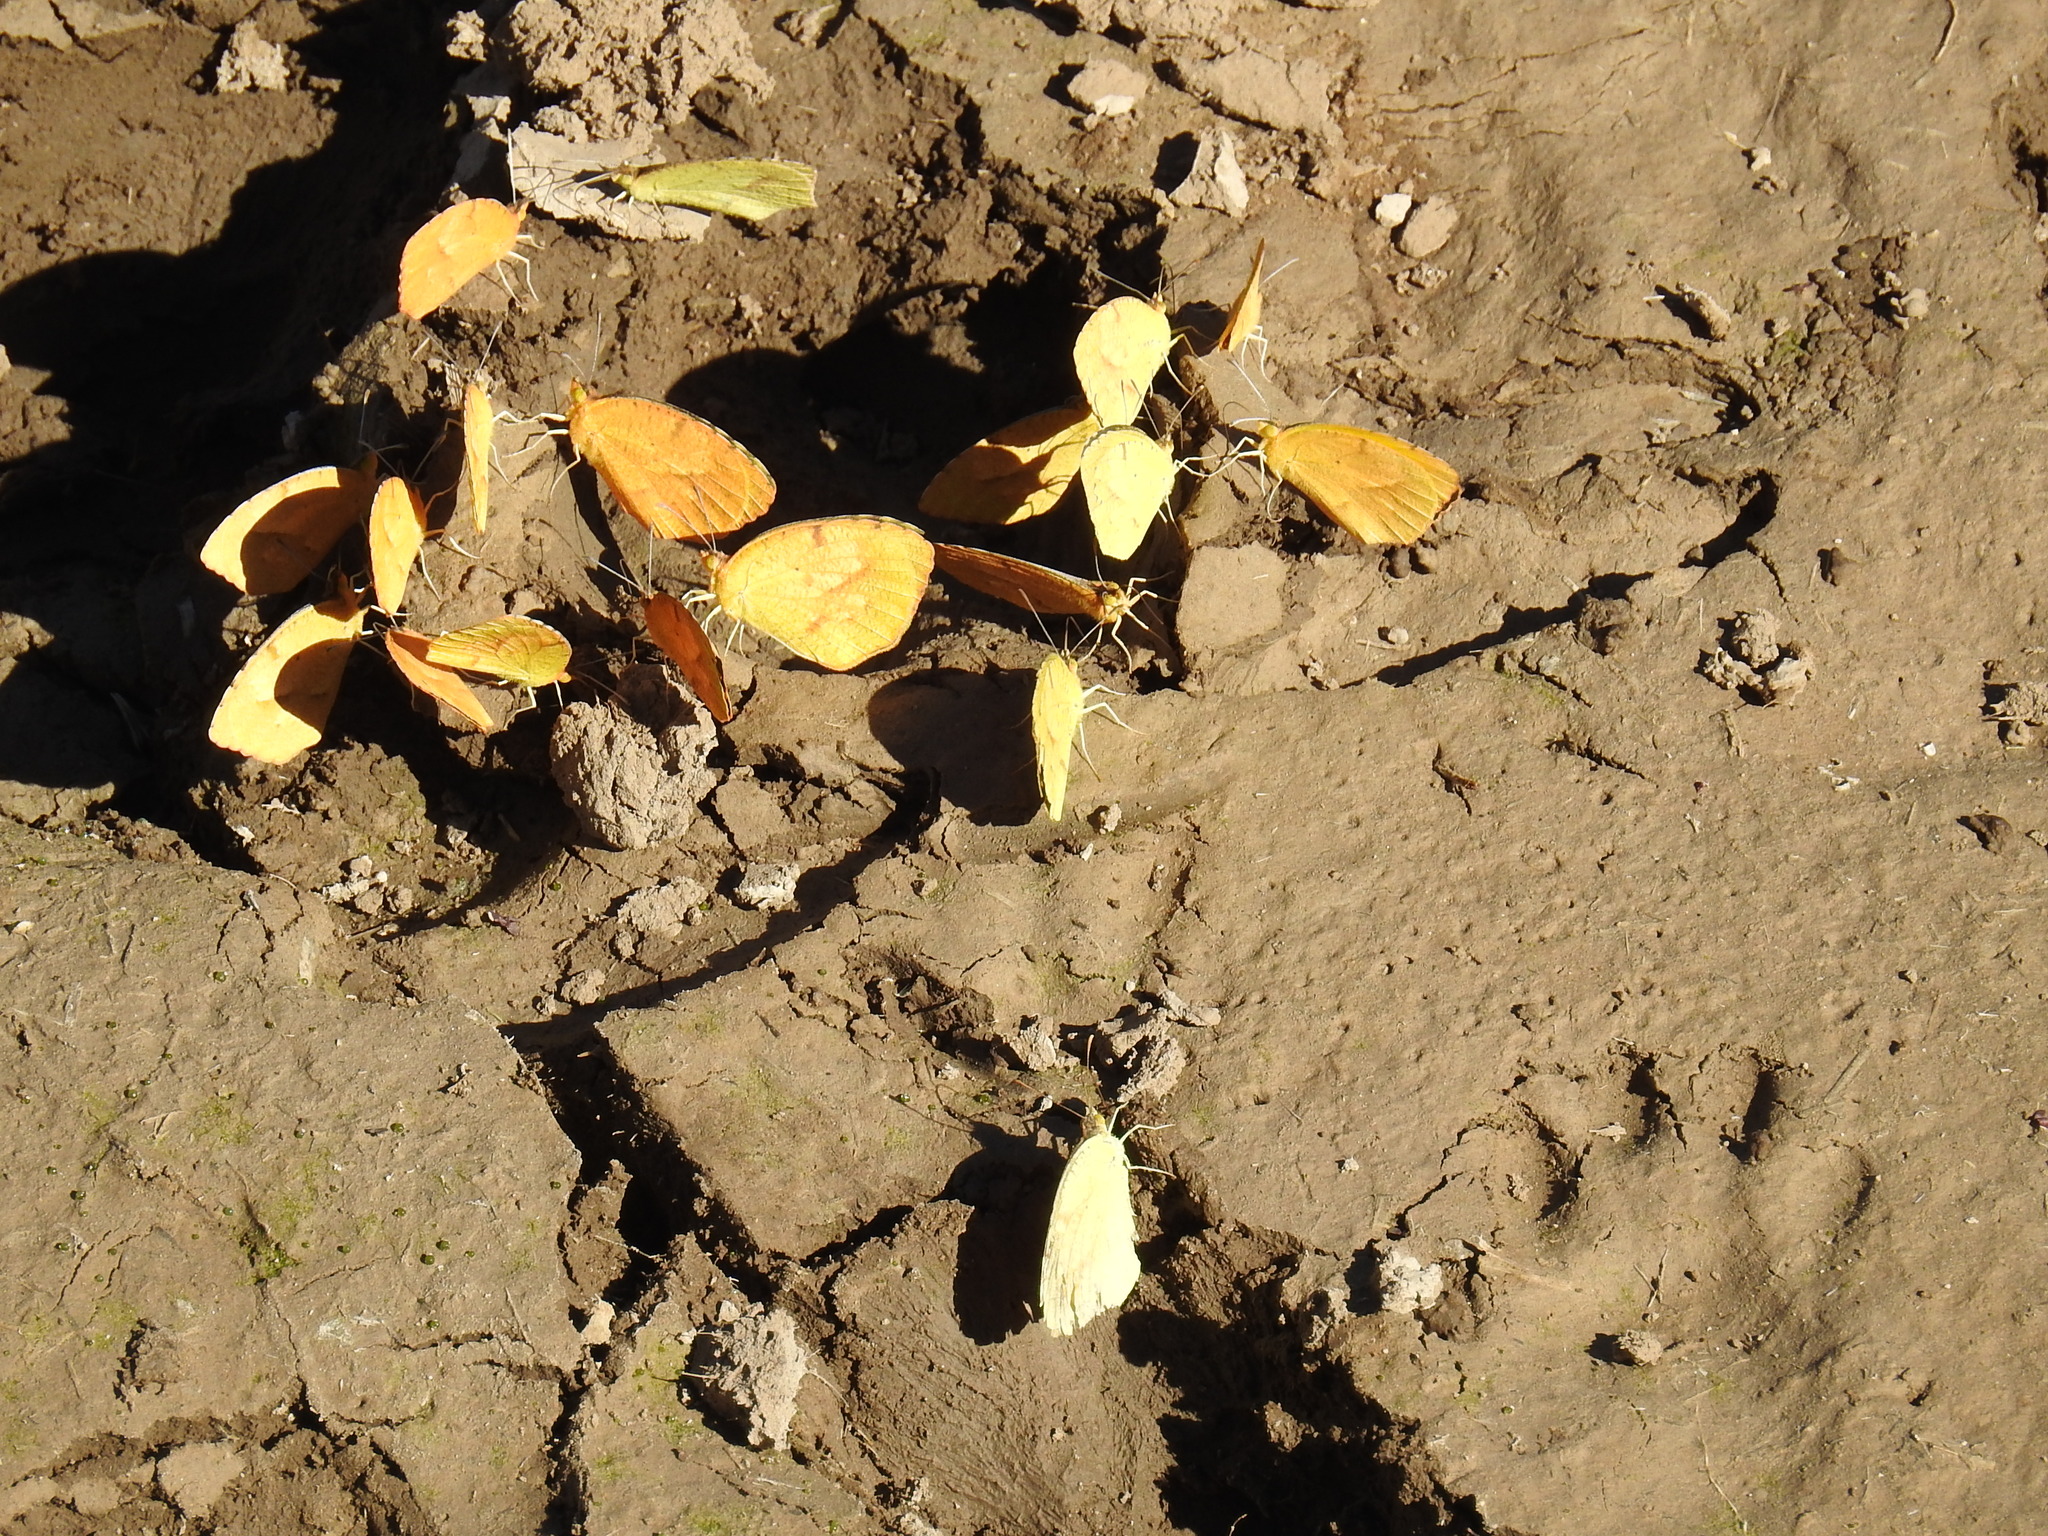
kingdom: Animalia
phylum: Arthropoda
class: Insecta
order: Lepidoptera
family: Pieridae
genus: Abaeis
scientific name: Abaeis nicippe
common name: Sleepy orange
